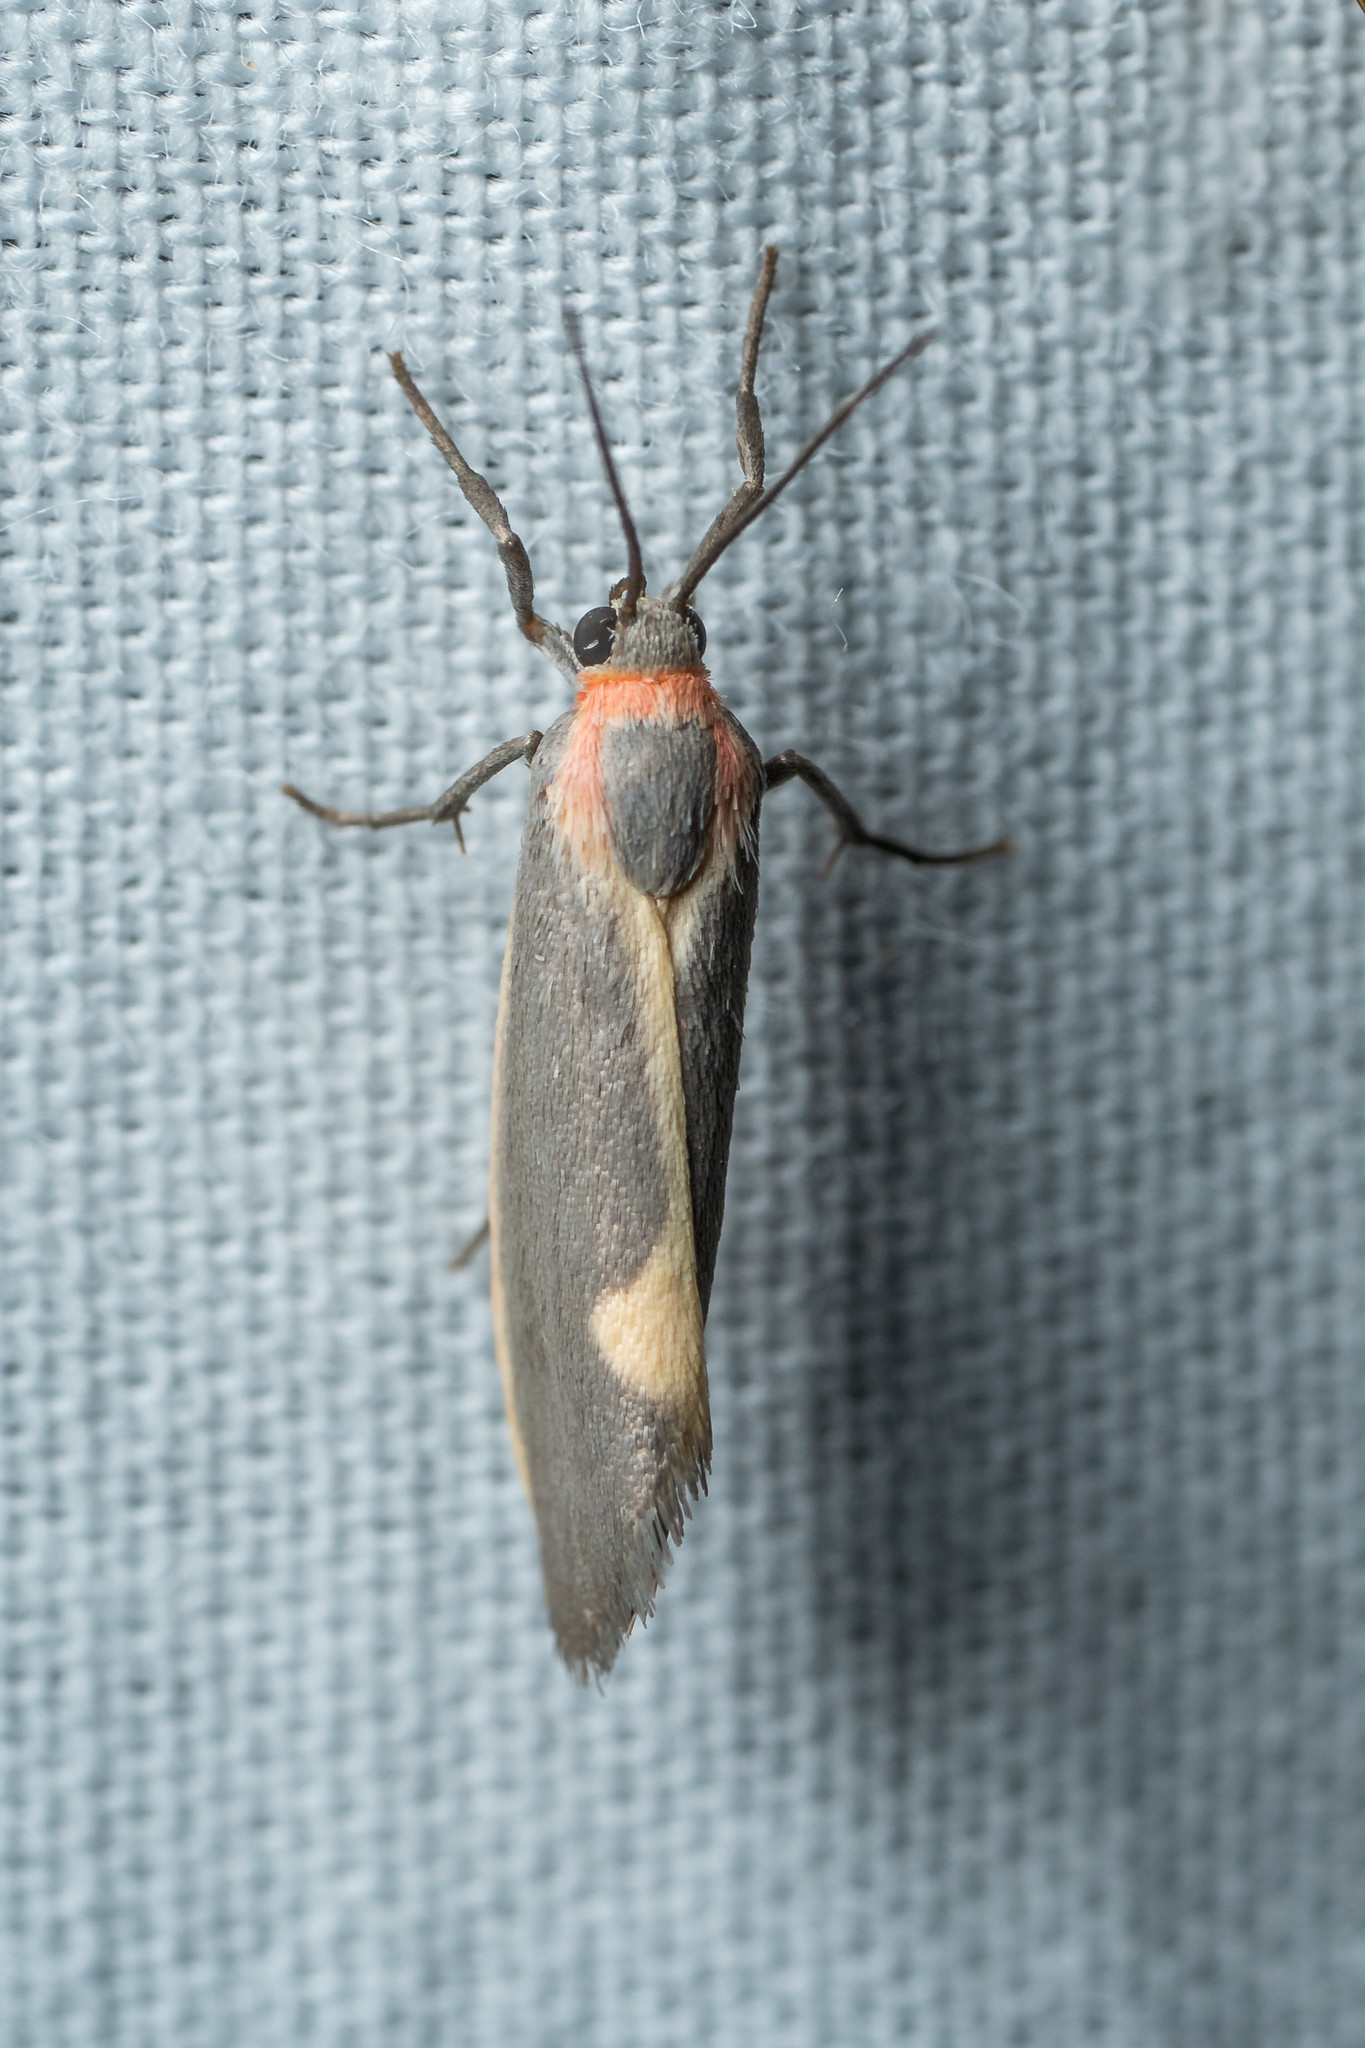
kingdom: Animalia
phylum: Arthropoda
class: Insecta
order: Lepidoptera
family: Erebidae
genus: Cisthene
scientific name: Cisthene plumbea
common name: Lead colored lichen moth
